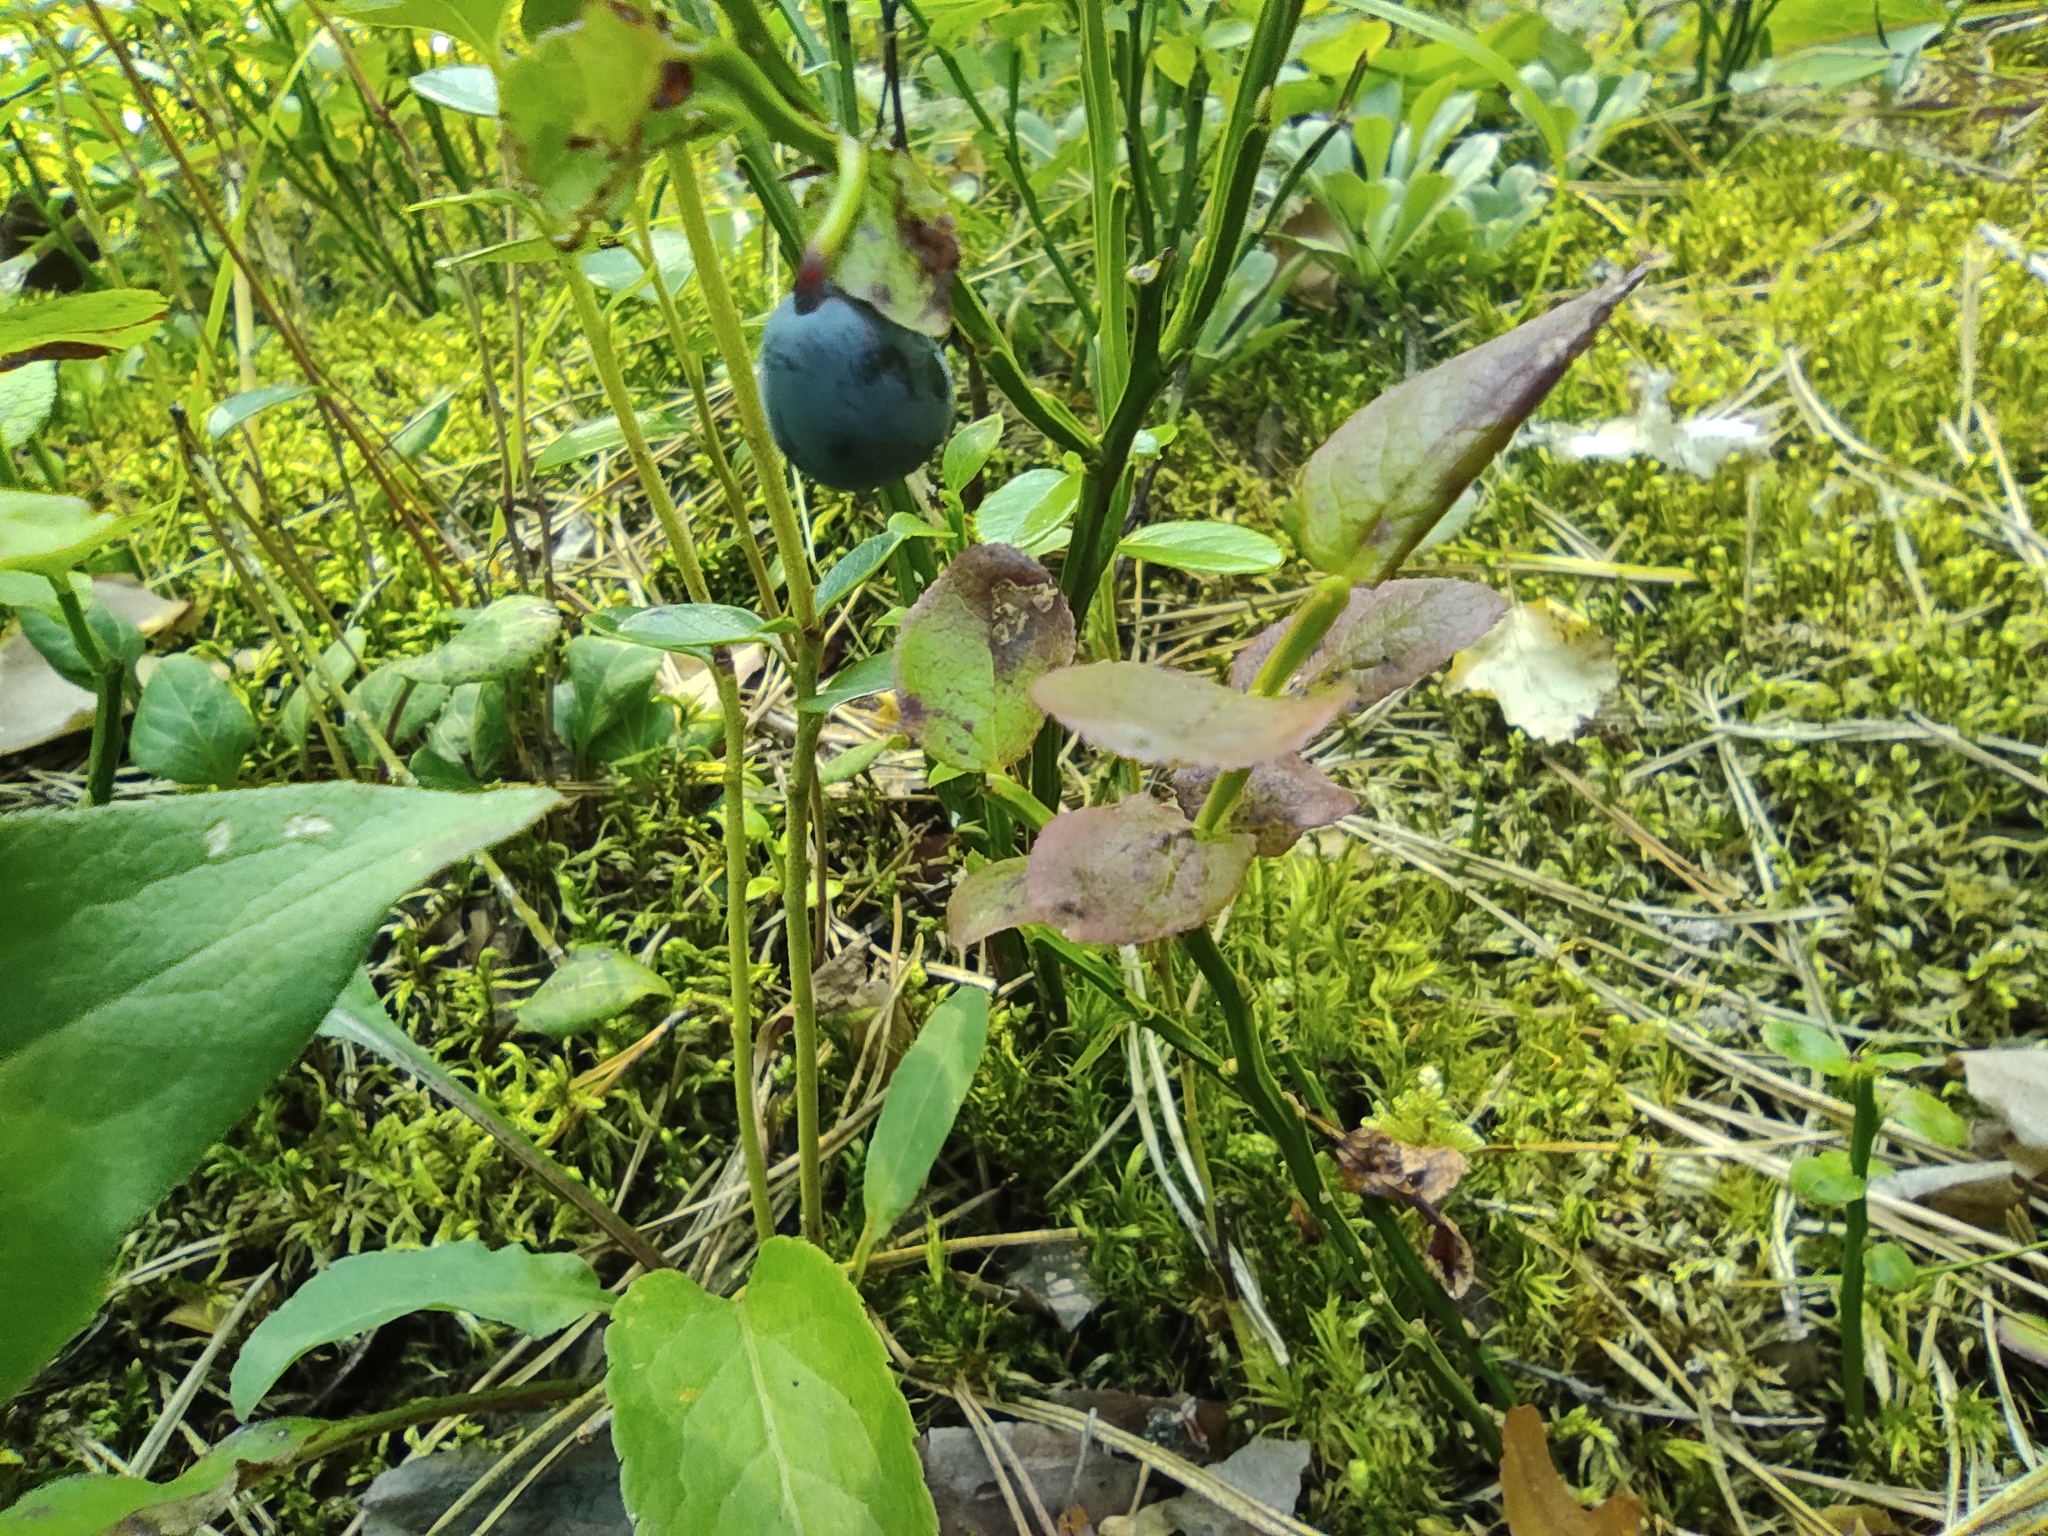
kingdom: Plantae
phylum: Tracheophyta
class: Magnoliopsida
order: Ericales
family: Ericaceae
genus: Vaccinium
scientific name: Vaccinium myrtillus
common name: Bilberry
